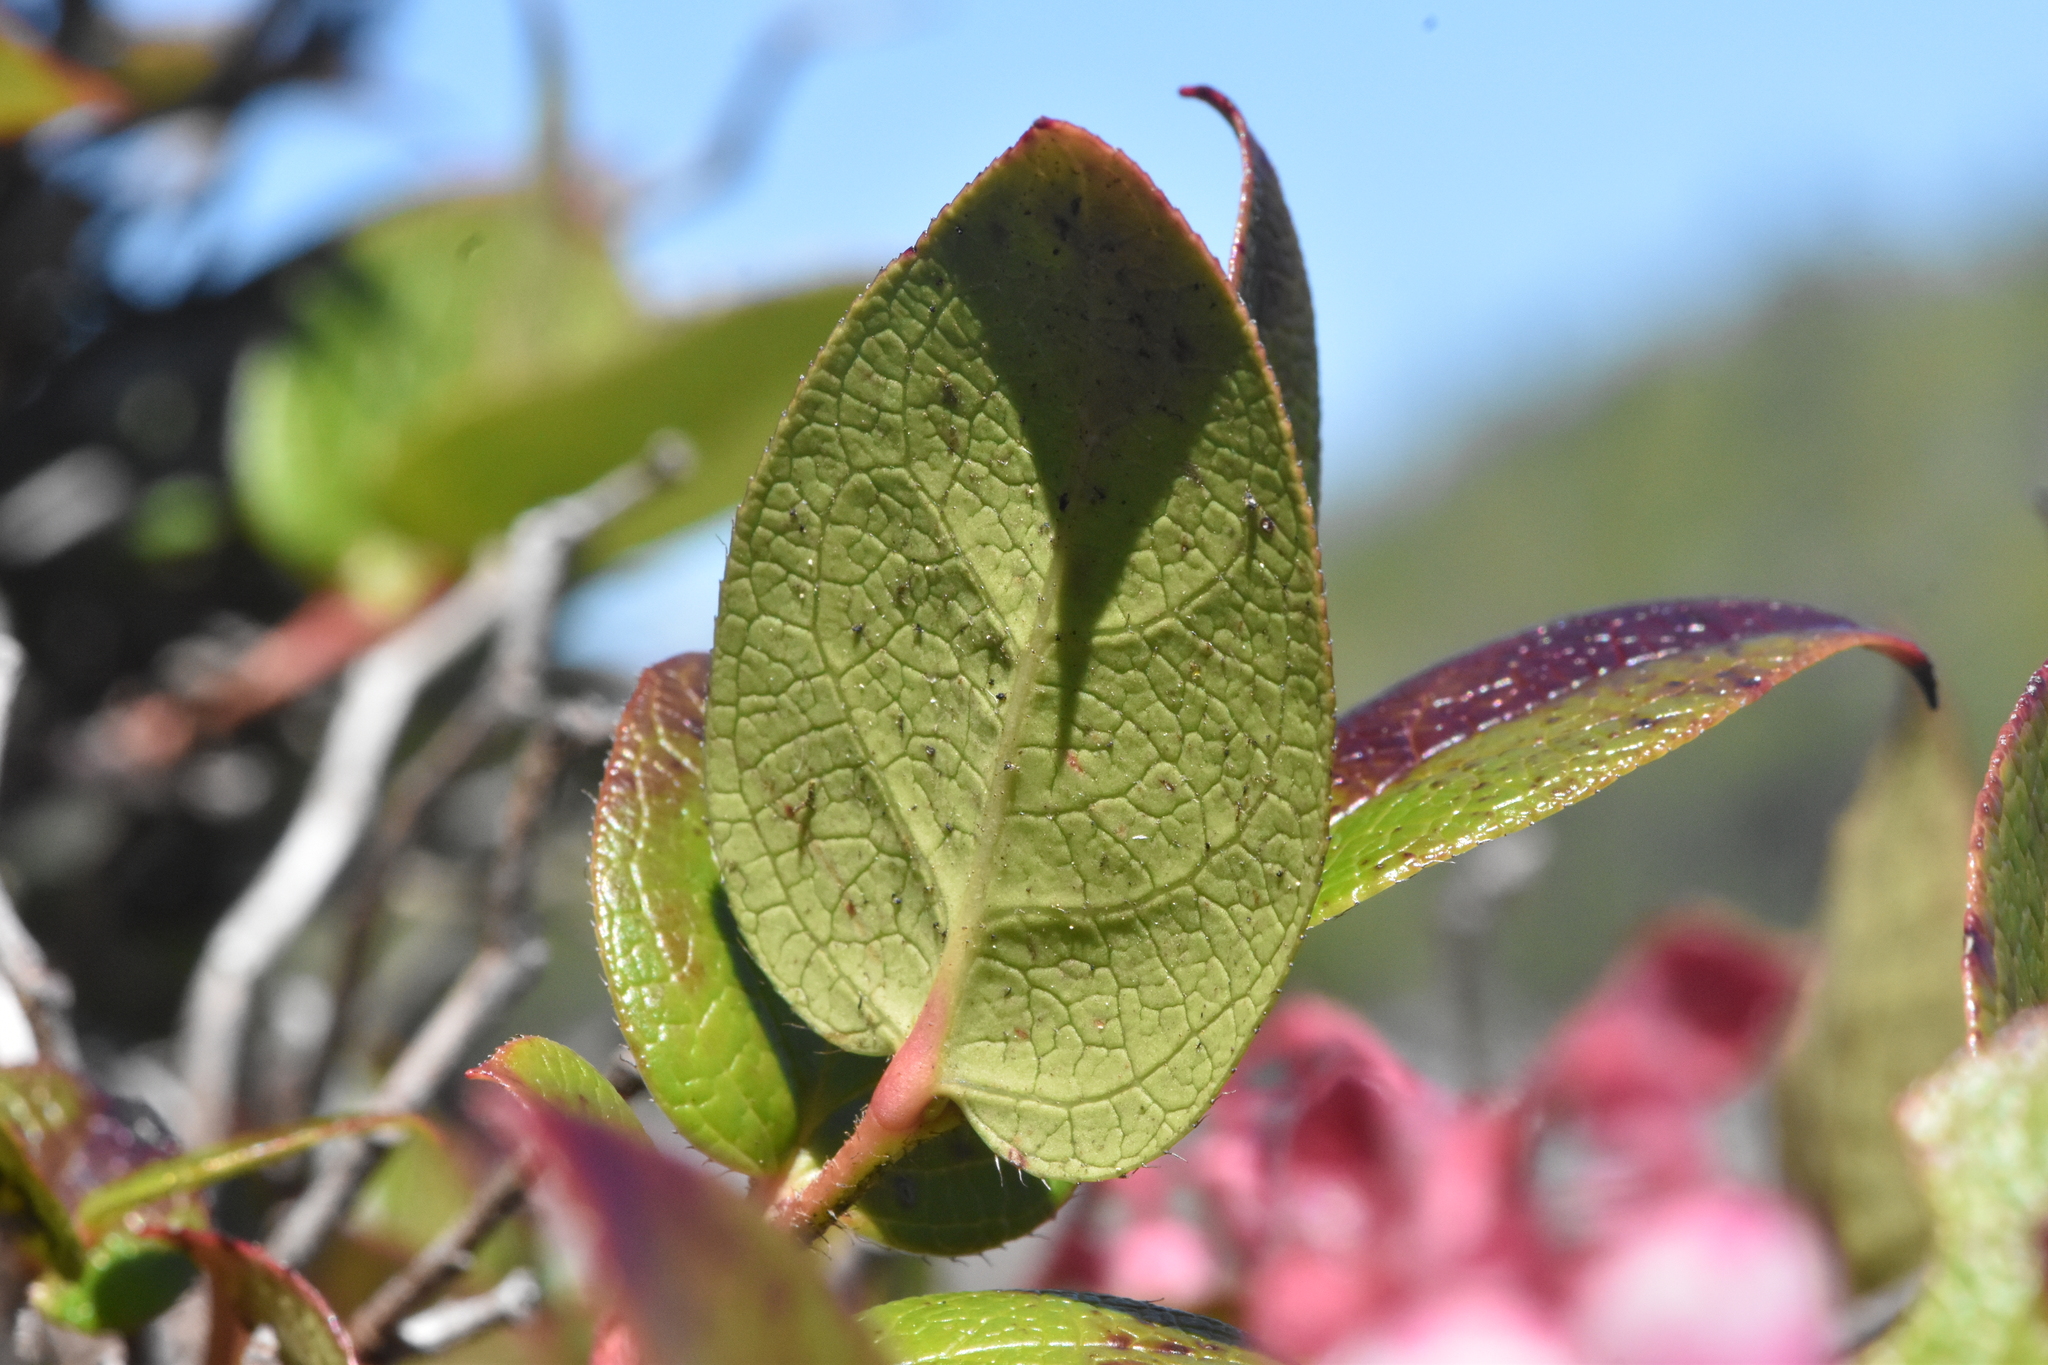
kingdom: Plantae
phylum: Tracheophyta
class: Magnoliopsida
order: Ericales
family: Ericaceae
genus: Gaultheria
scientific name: Gaultheria shallon
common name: Shallon
